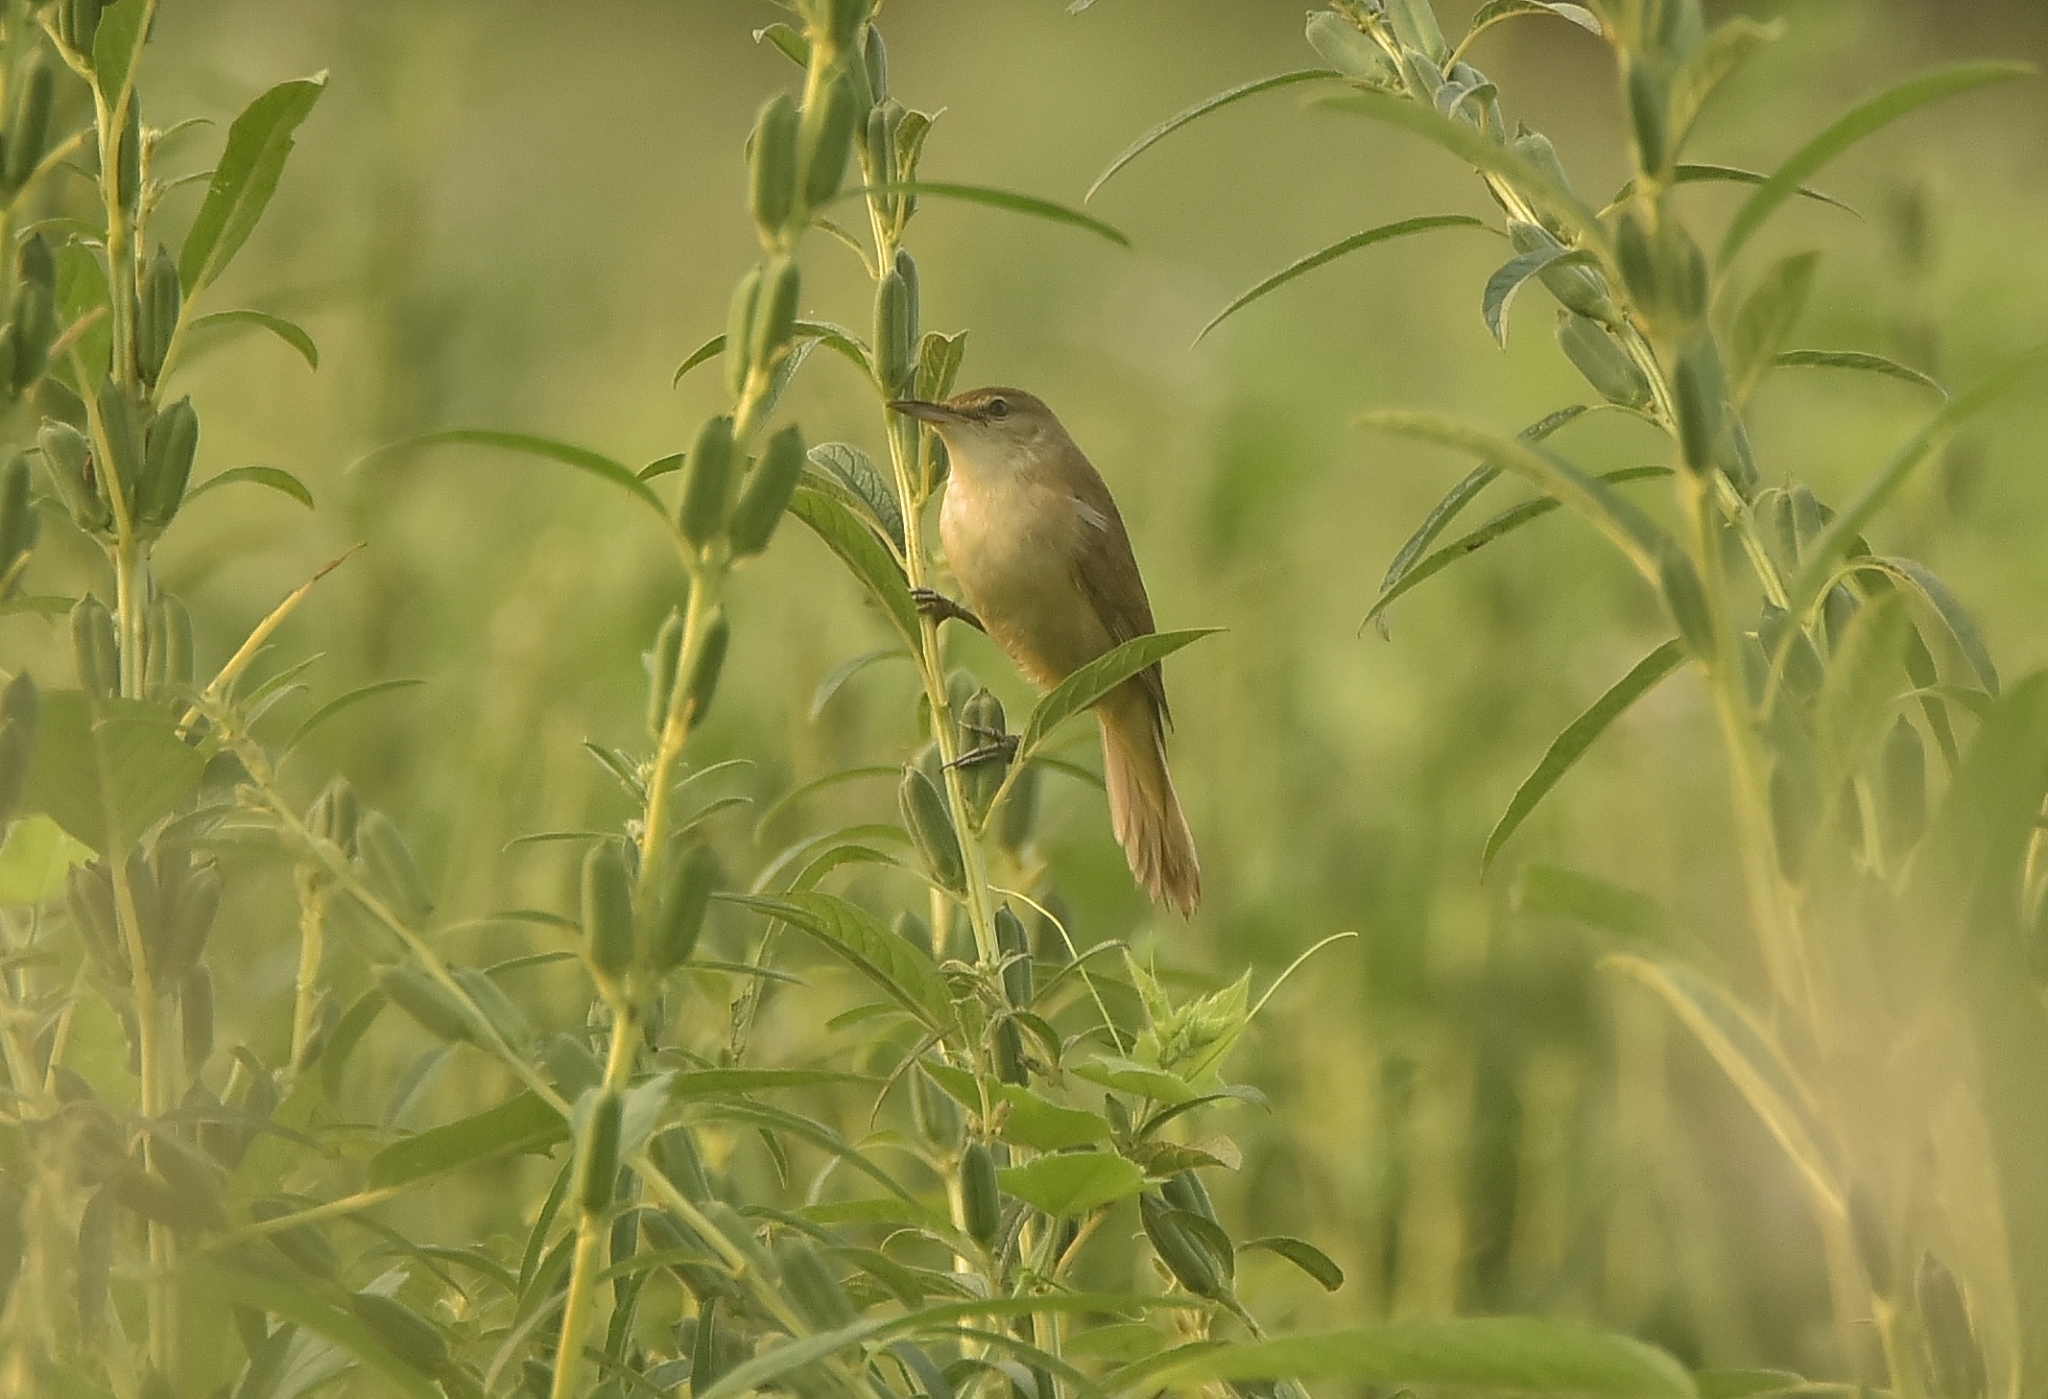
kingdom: Animalia
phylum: Chordata
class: Aves
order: Passeriformes
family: Acrocephalidae
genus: Acrocephalus
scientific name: Acrocephalus dumetorum
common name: Blyth's reed warbler
